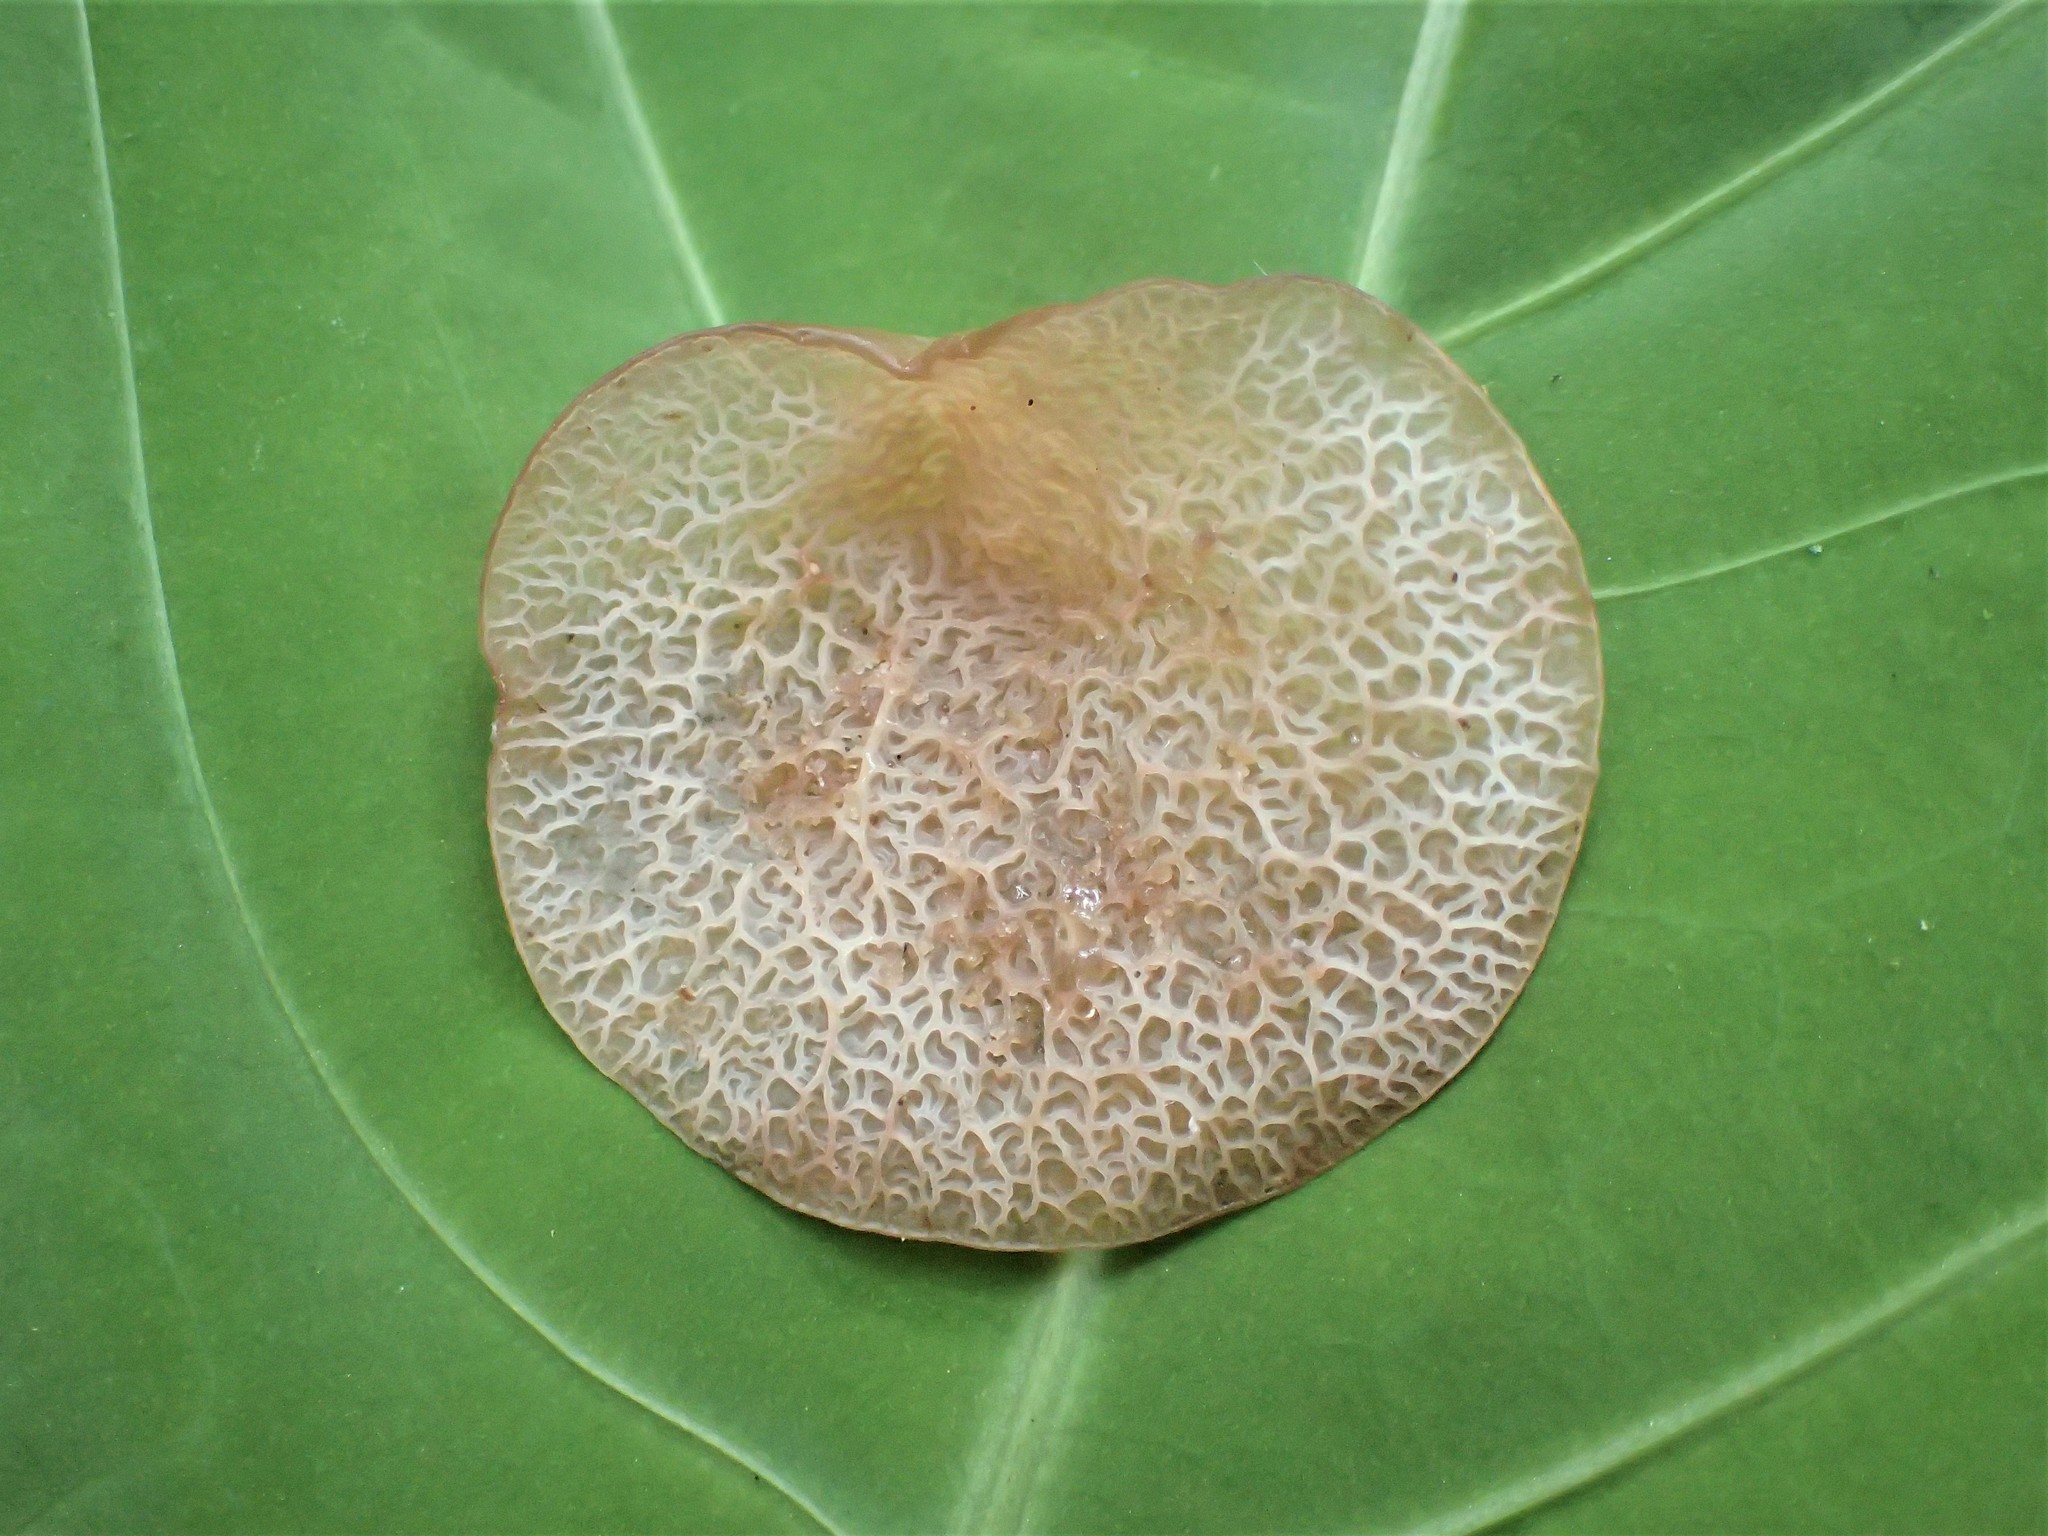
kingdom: Fungi
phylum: Basidiomycota
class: Agaricomycetes
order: Auriculariales
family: Auriculariaceae
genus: Auricularia
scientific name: Auricularia delicata
